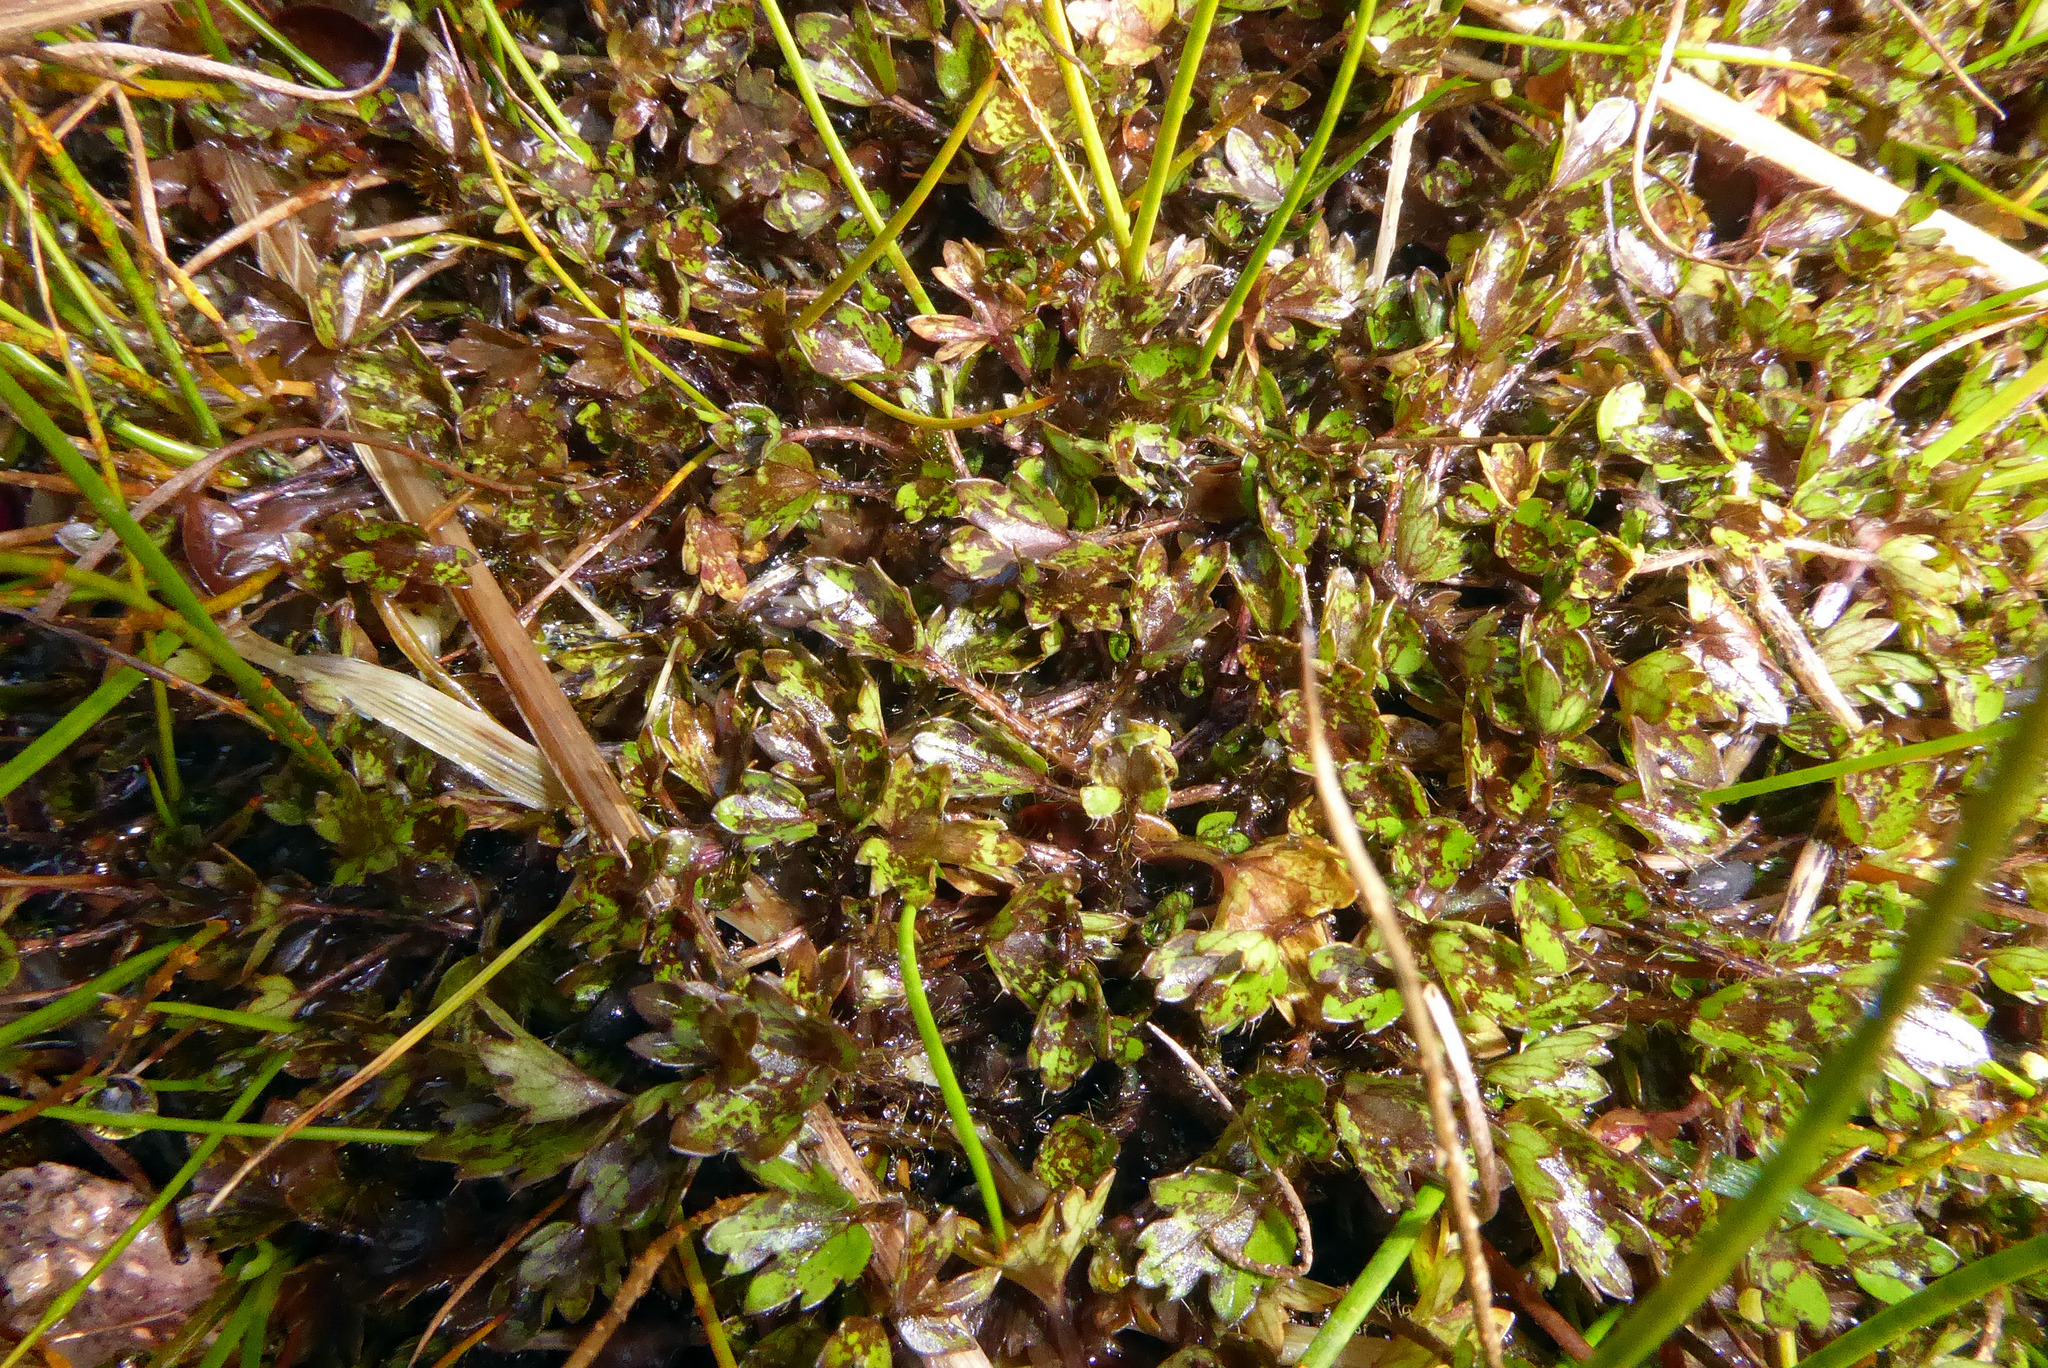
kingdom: Plantae
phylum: Tracheophyta
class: Magnoliopsida
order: Ranunculales
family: Ranunculaceae
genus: Ranunculus
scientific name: Ranunculus carsei
